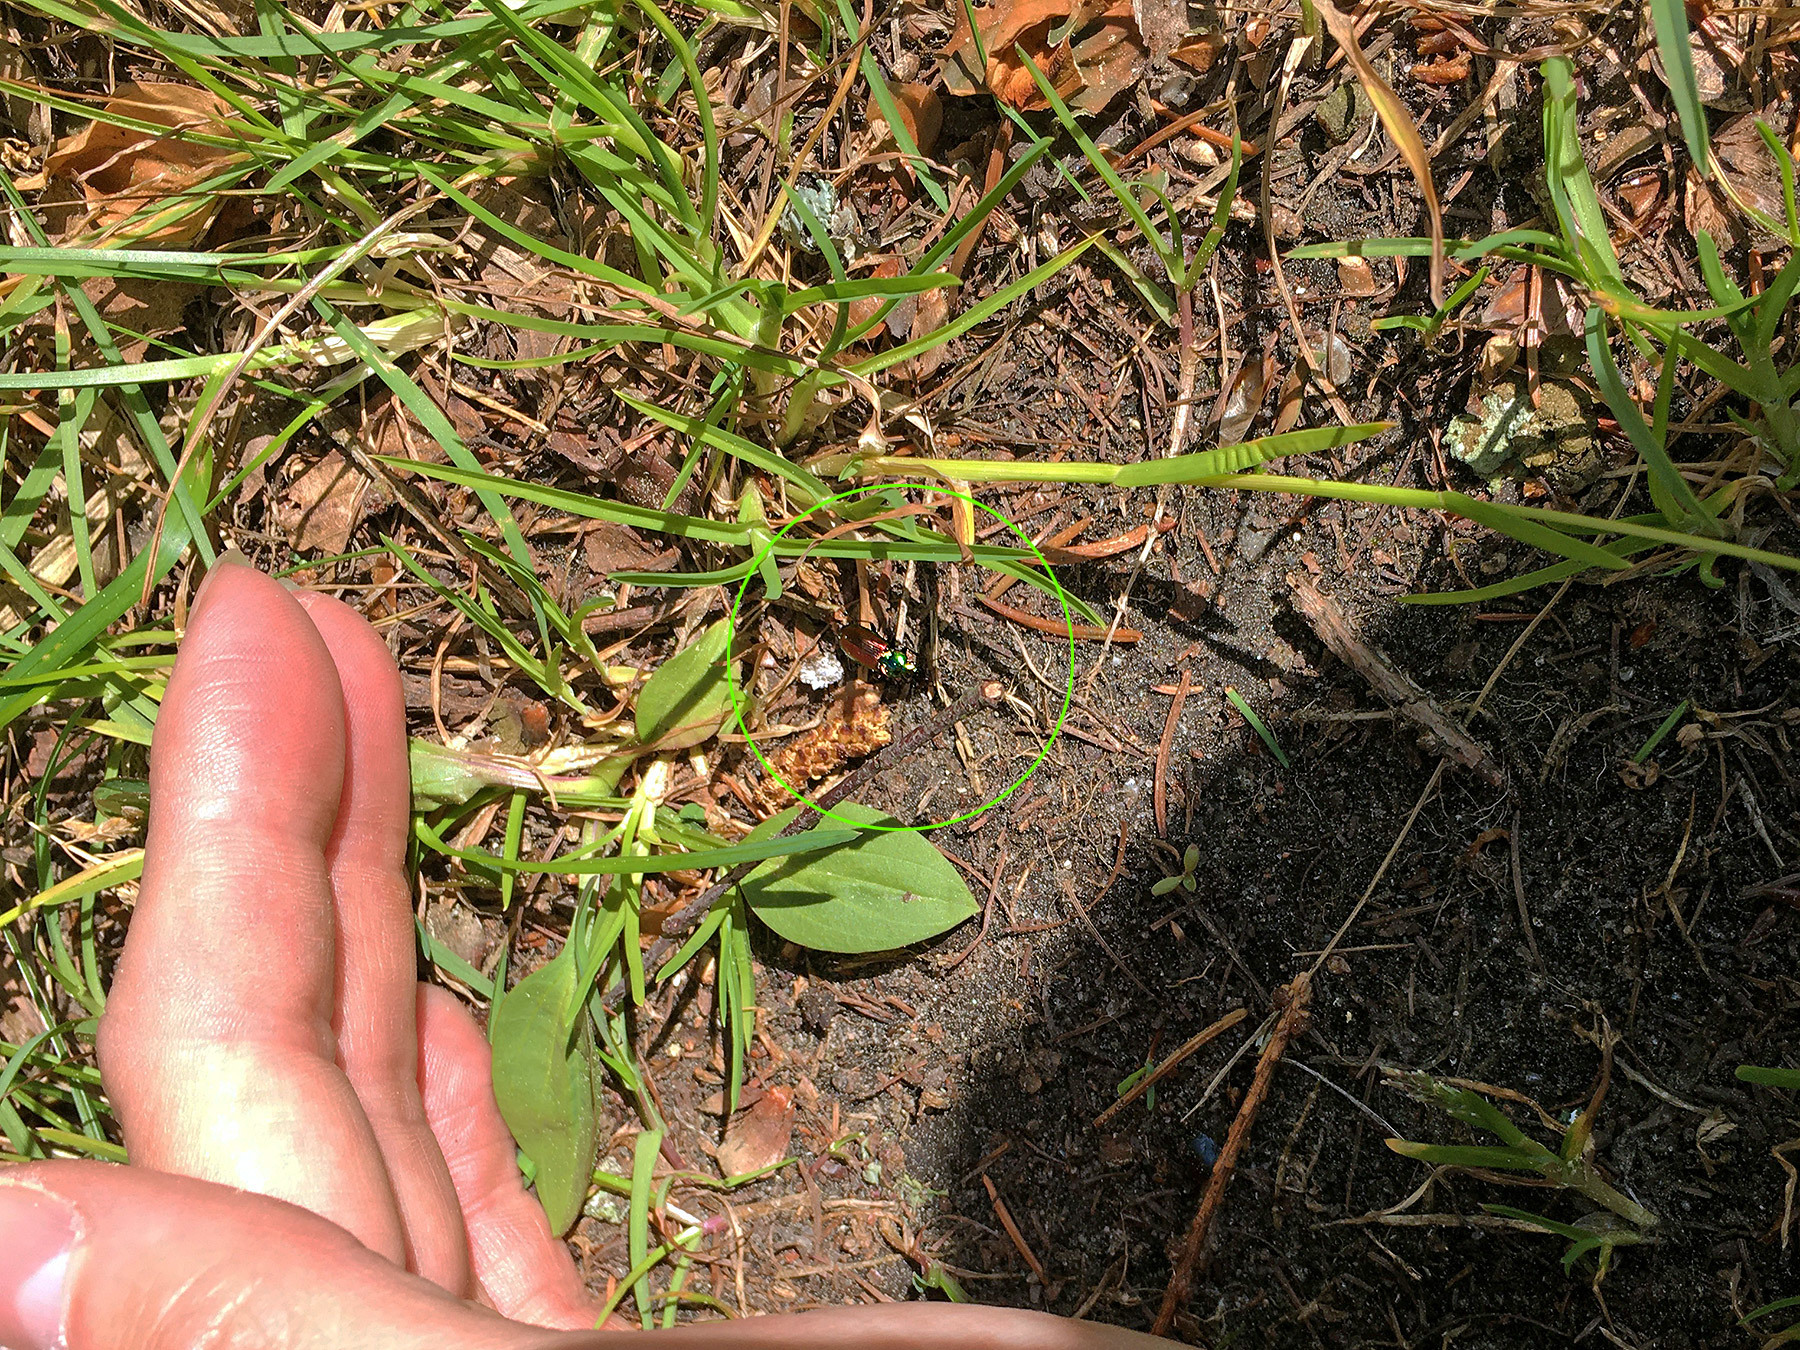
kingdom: Animalia
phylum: Arthropoda
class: Insecta
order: Coleoptera
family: Carabidae
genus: Agonum
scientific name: Agonum sexpunctatum
